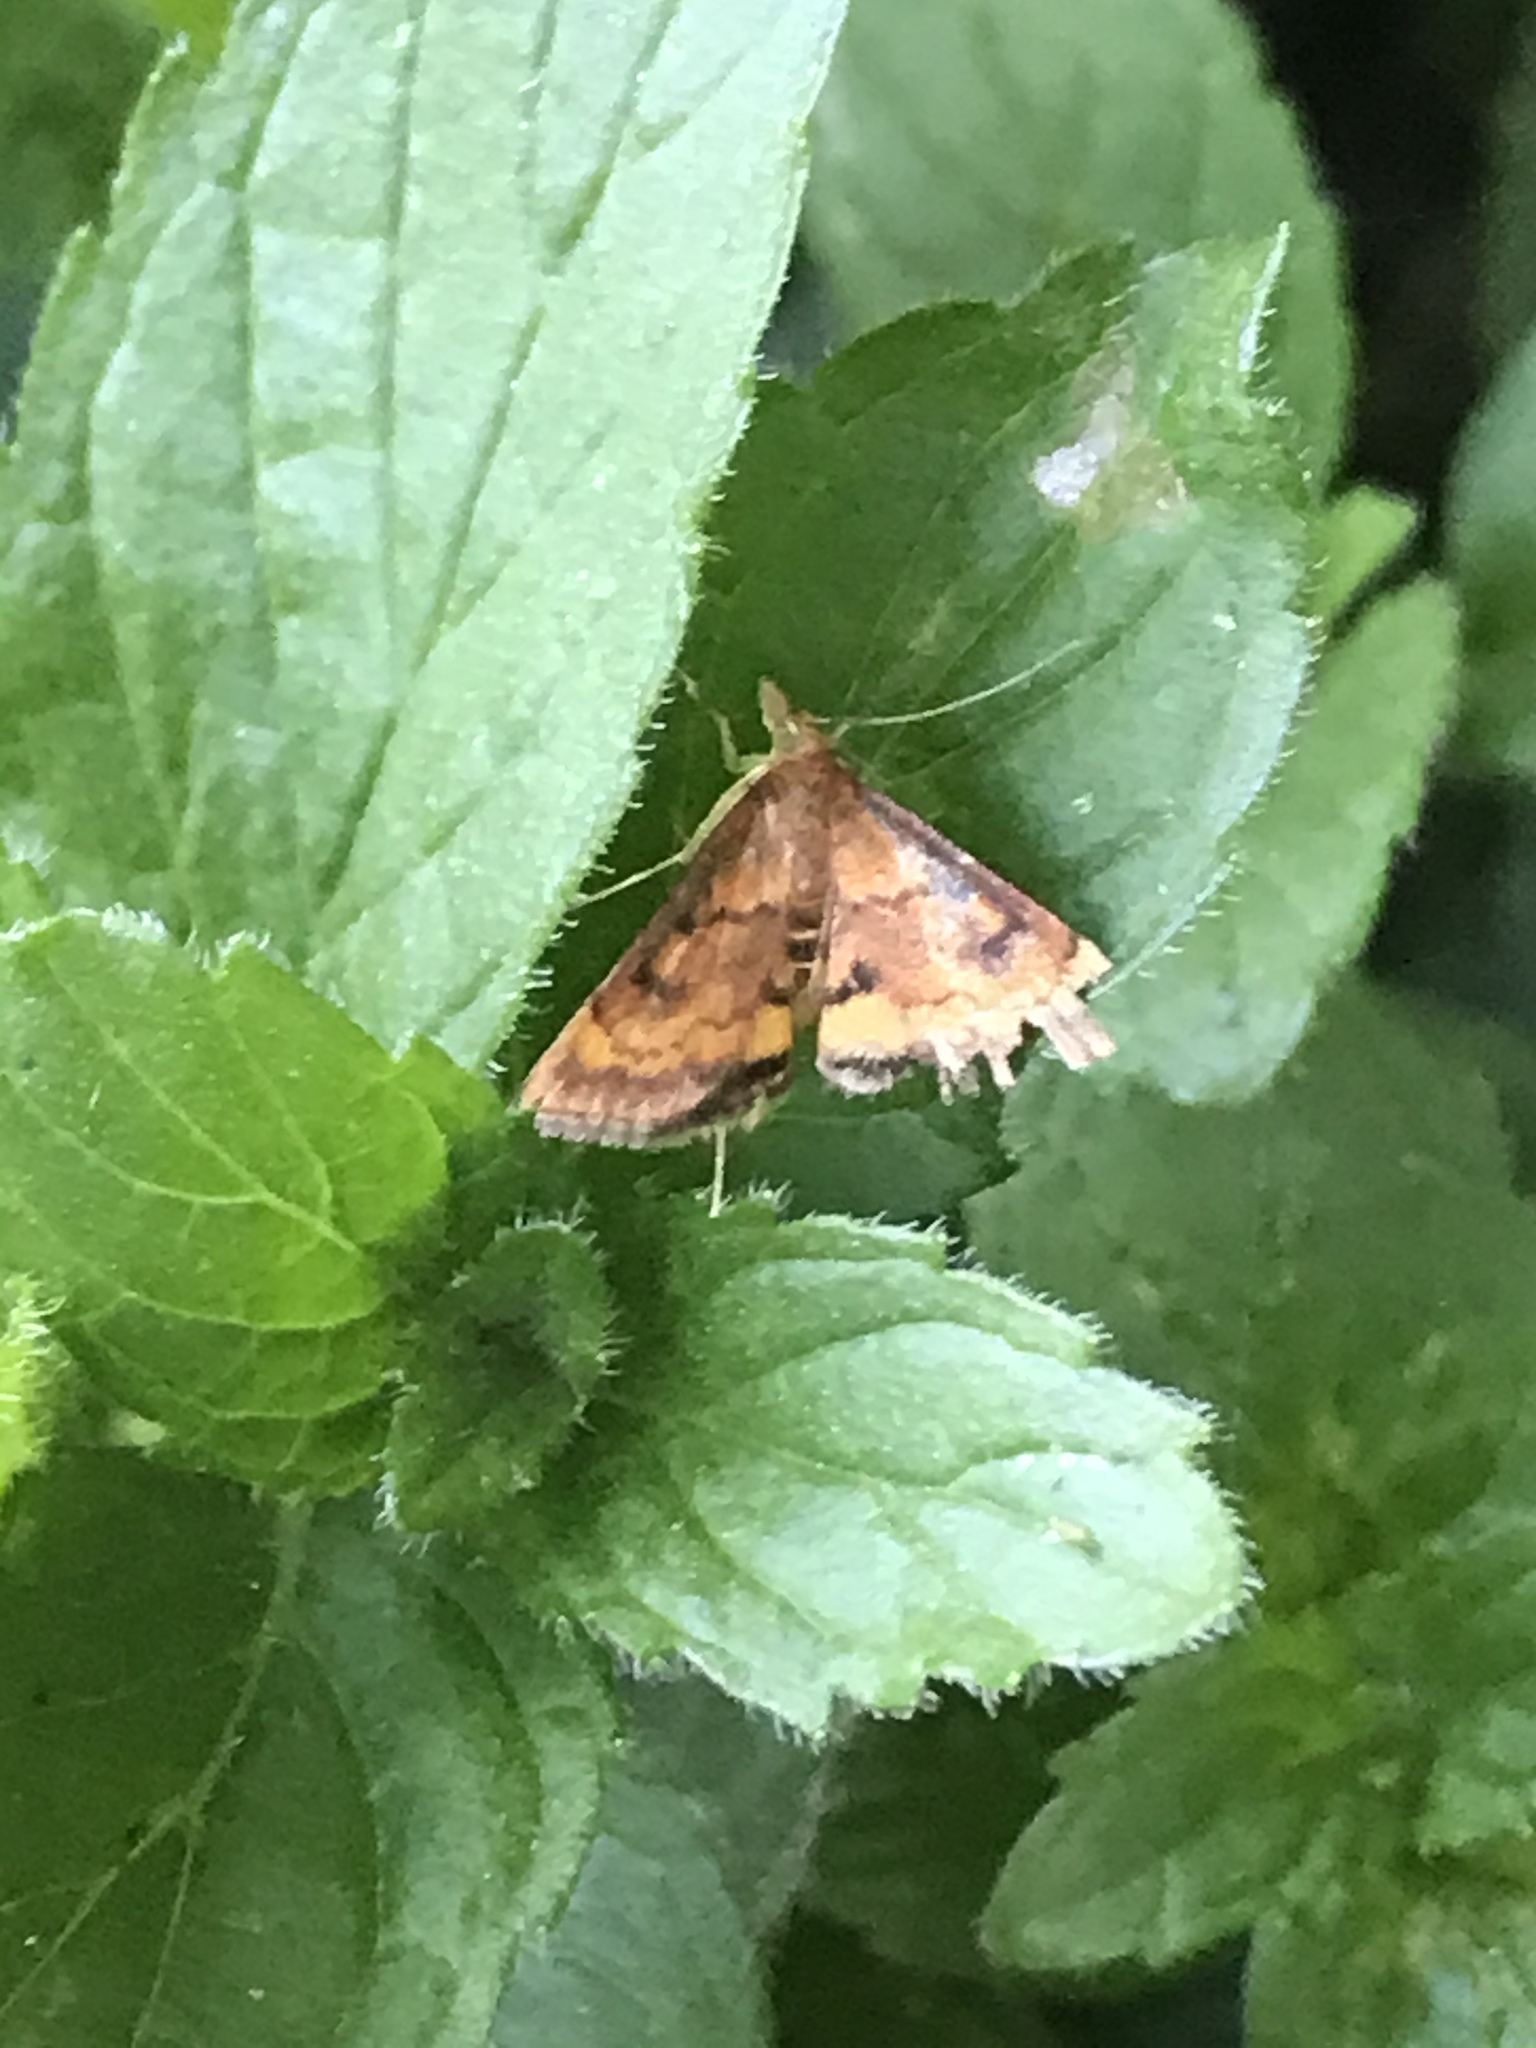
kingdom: Animalia
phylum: Arthropoda
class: Insecta
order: Lepidoptera
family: Crambidae
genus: Pyrausta
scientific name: Pyrausta californicalis
